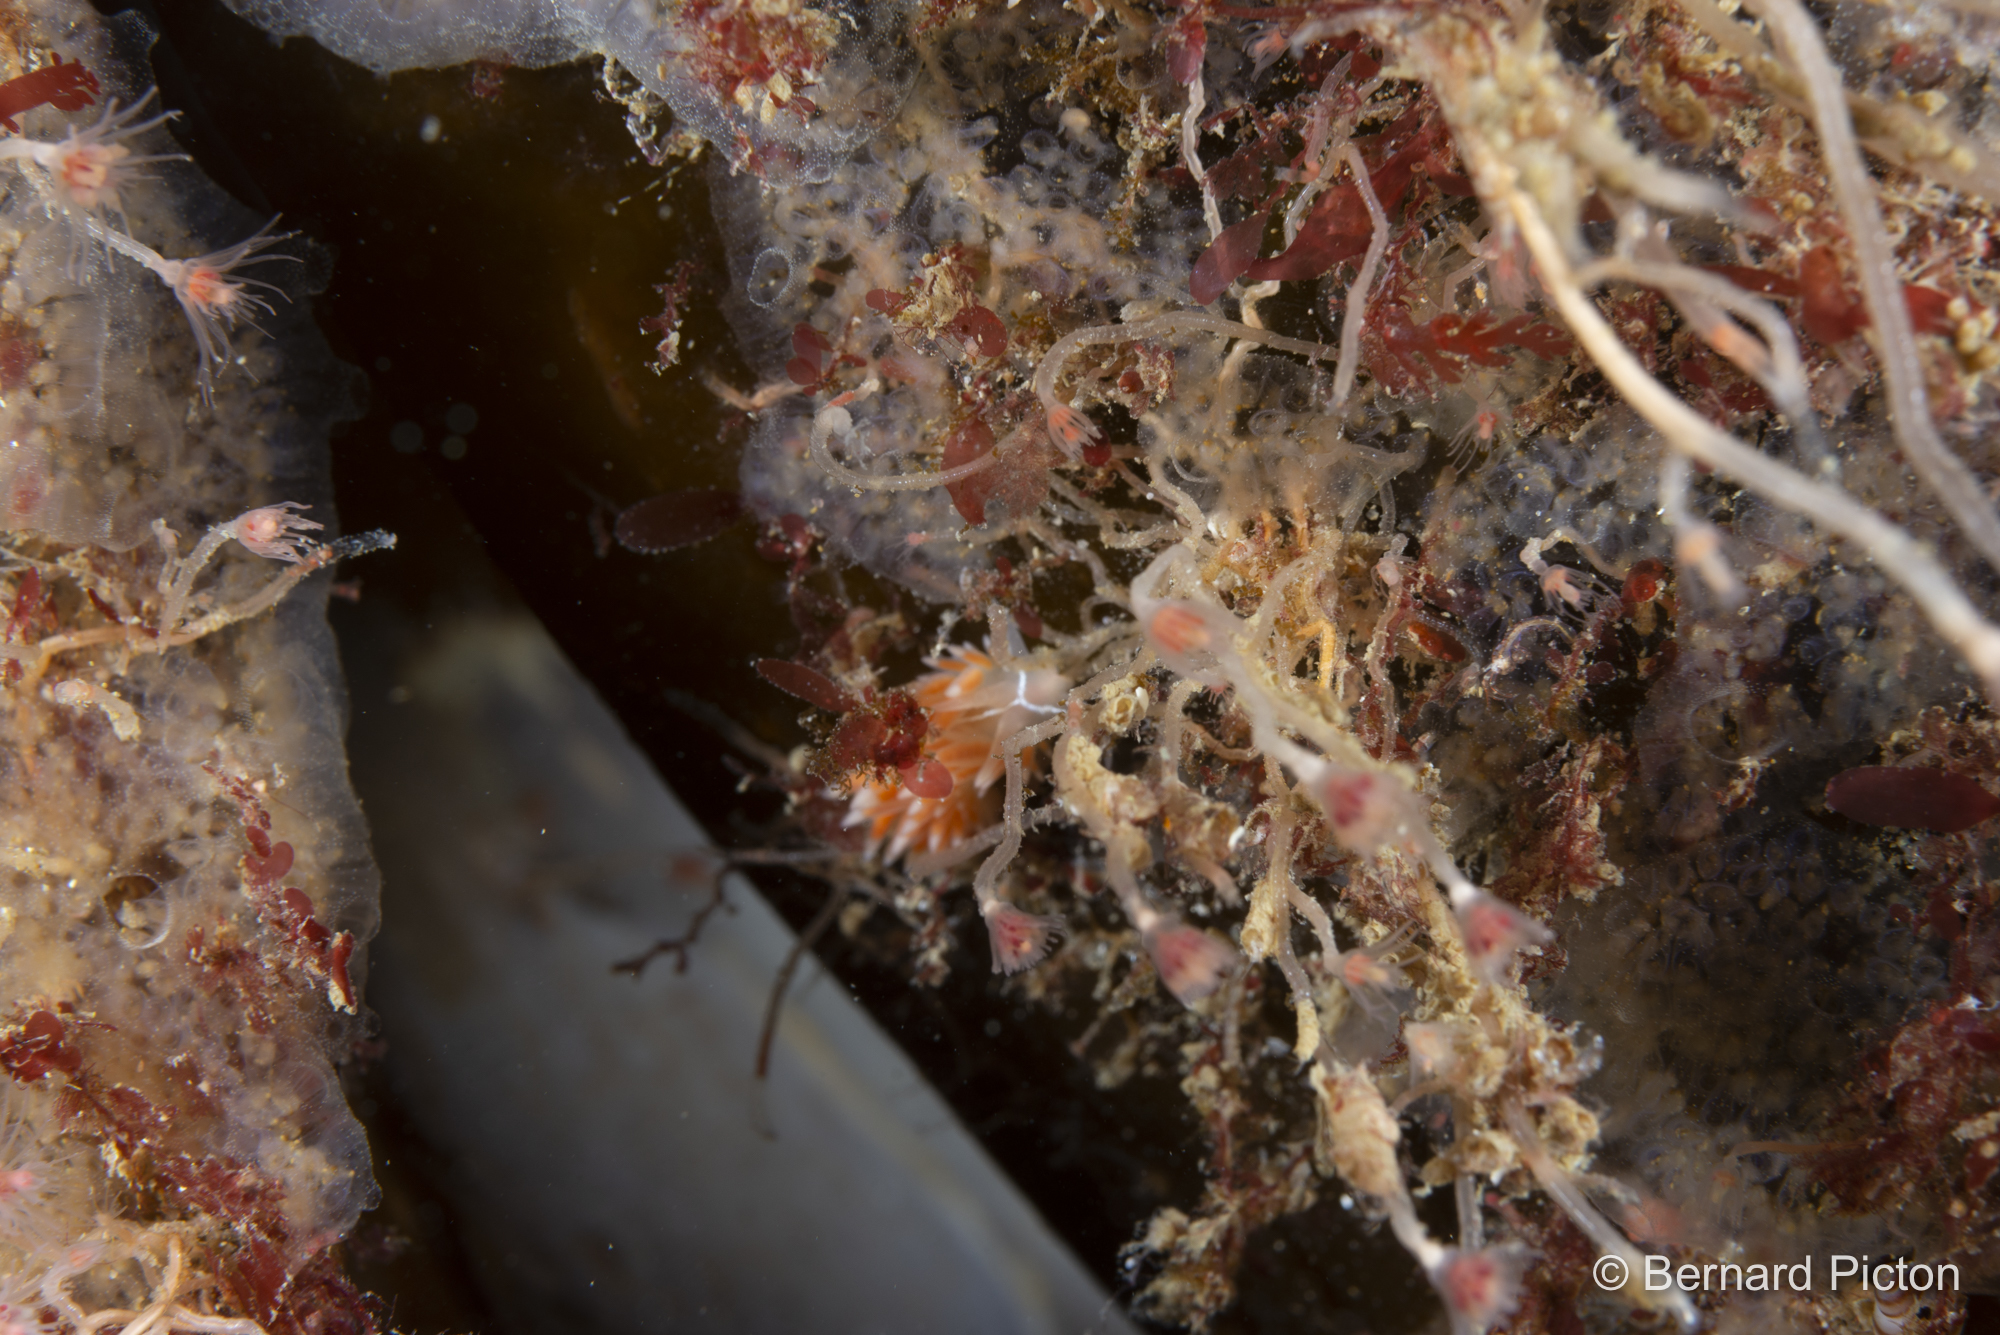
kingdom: Animalia
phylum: Mollusca
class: Gastropoda
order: Nudibranchia
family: Coryphellidae
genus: Coryphella
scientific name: Coryphella chriskaugei
